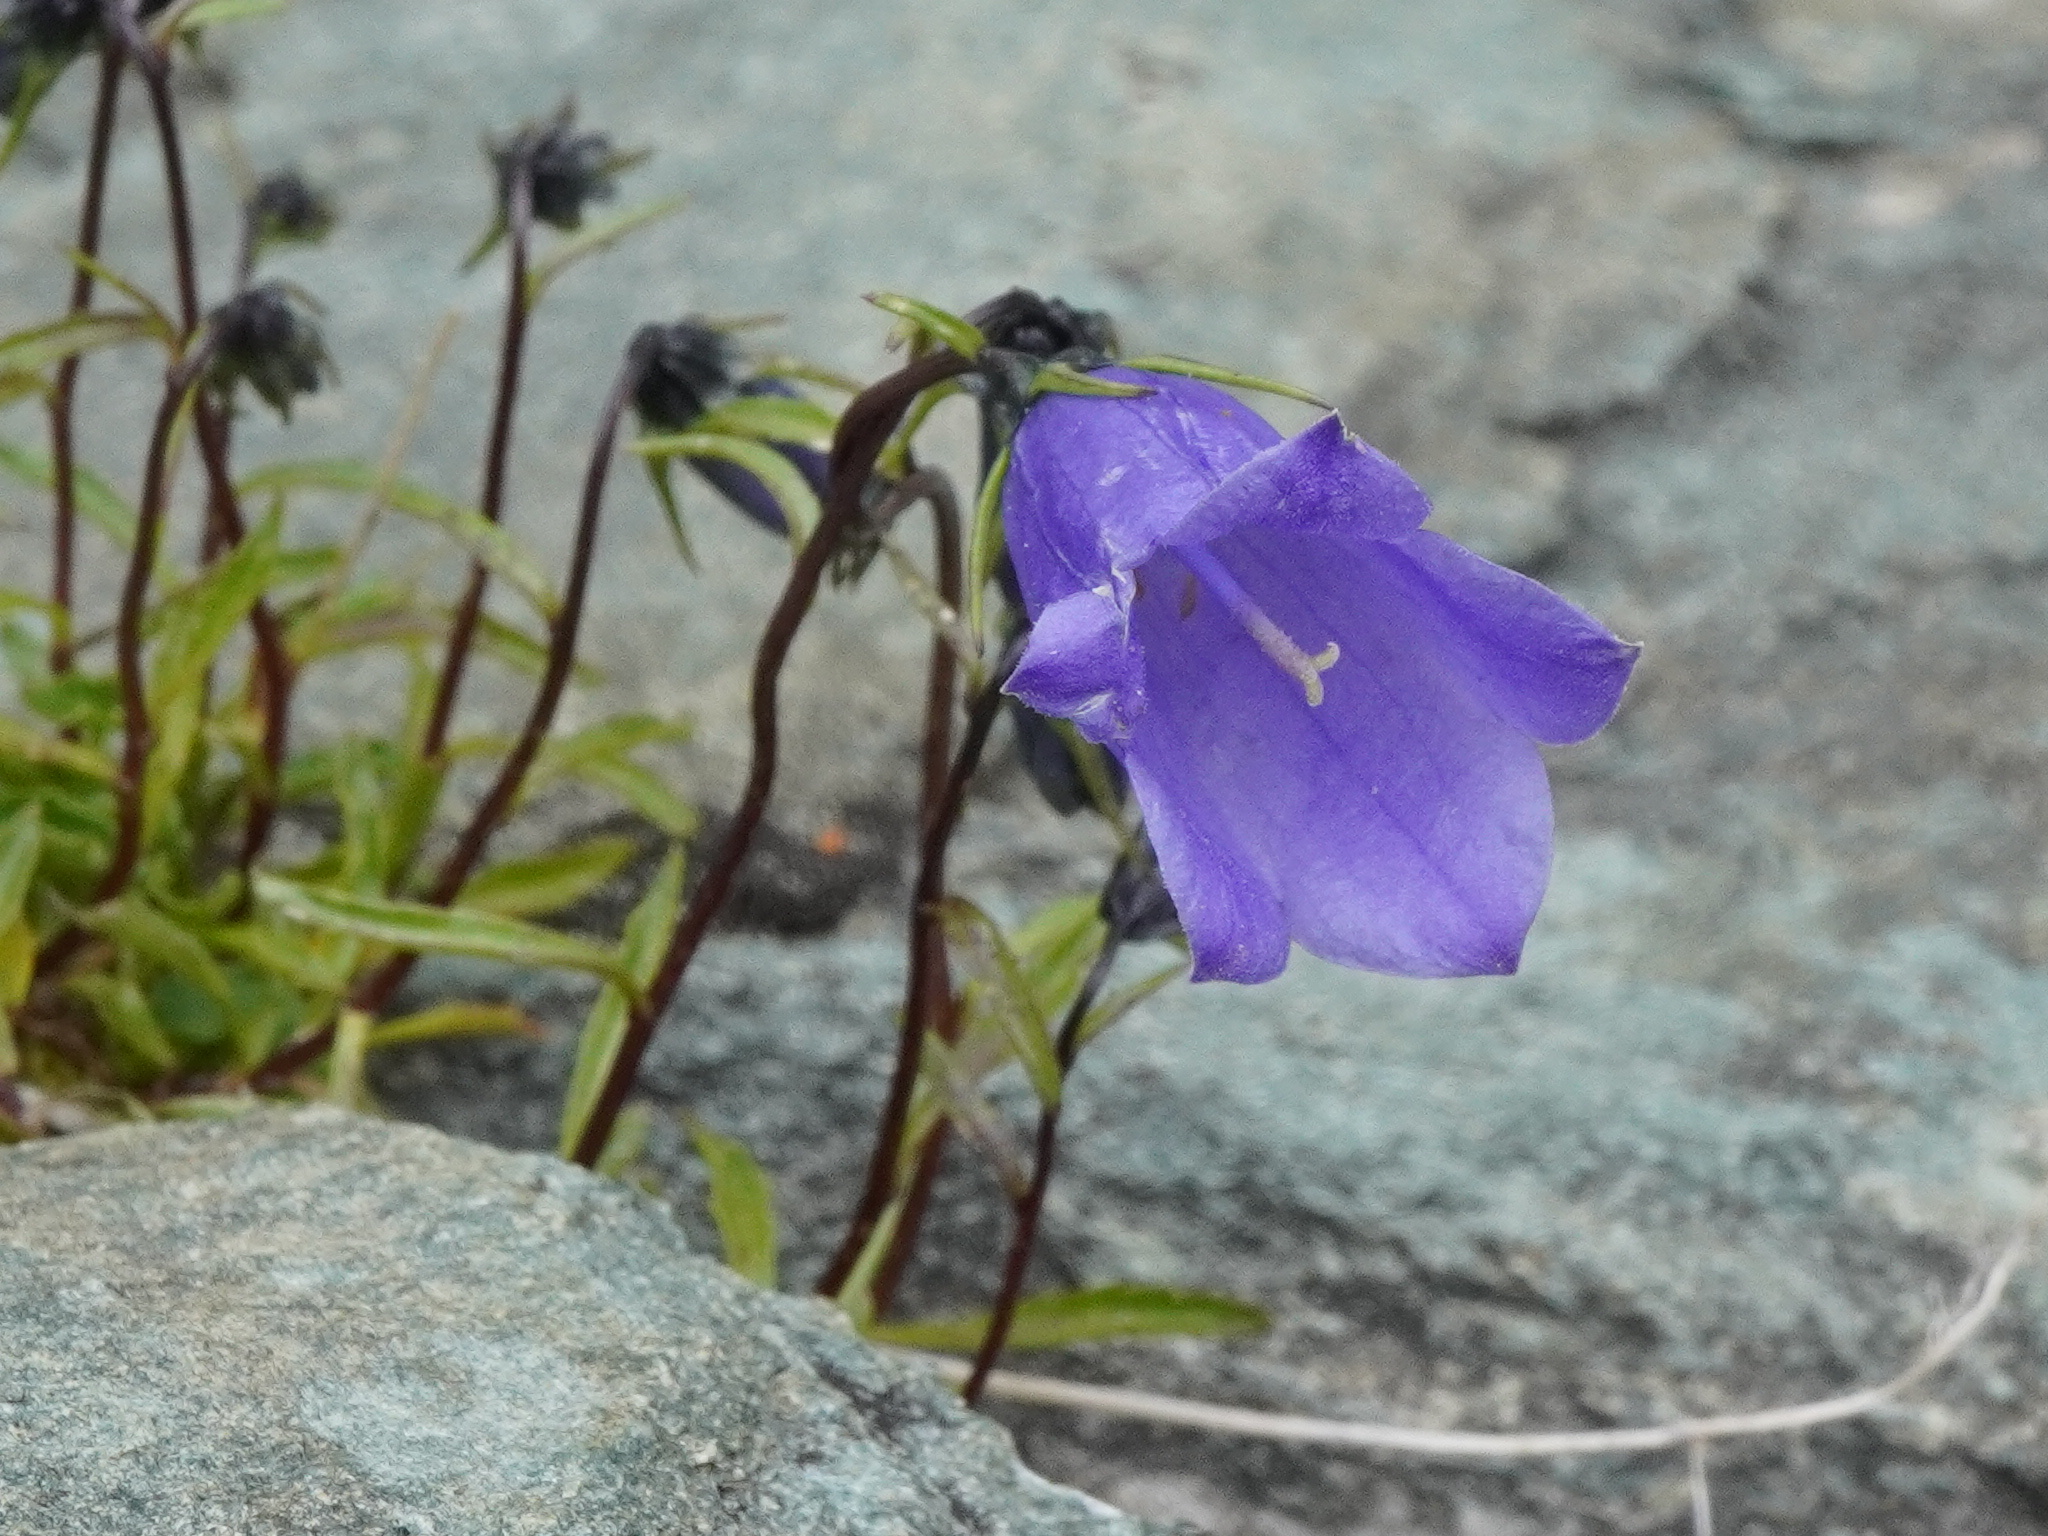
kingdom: Plantae
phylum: Tracheophyta
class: Magnoliopsida
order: Asterales
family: Campanulaceae
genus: Campanula
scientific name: Campanula cochleariifolia
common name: Fairies'-thimbles
